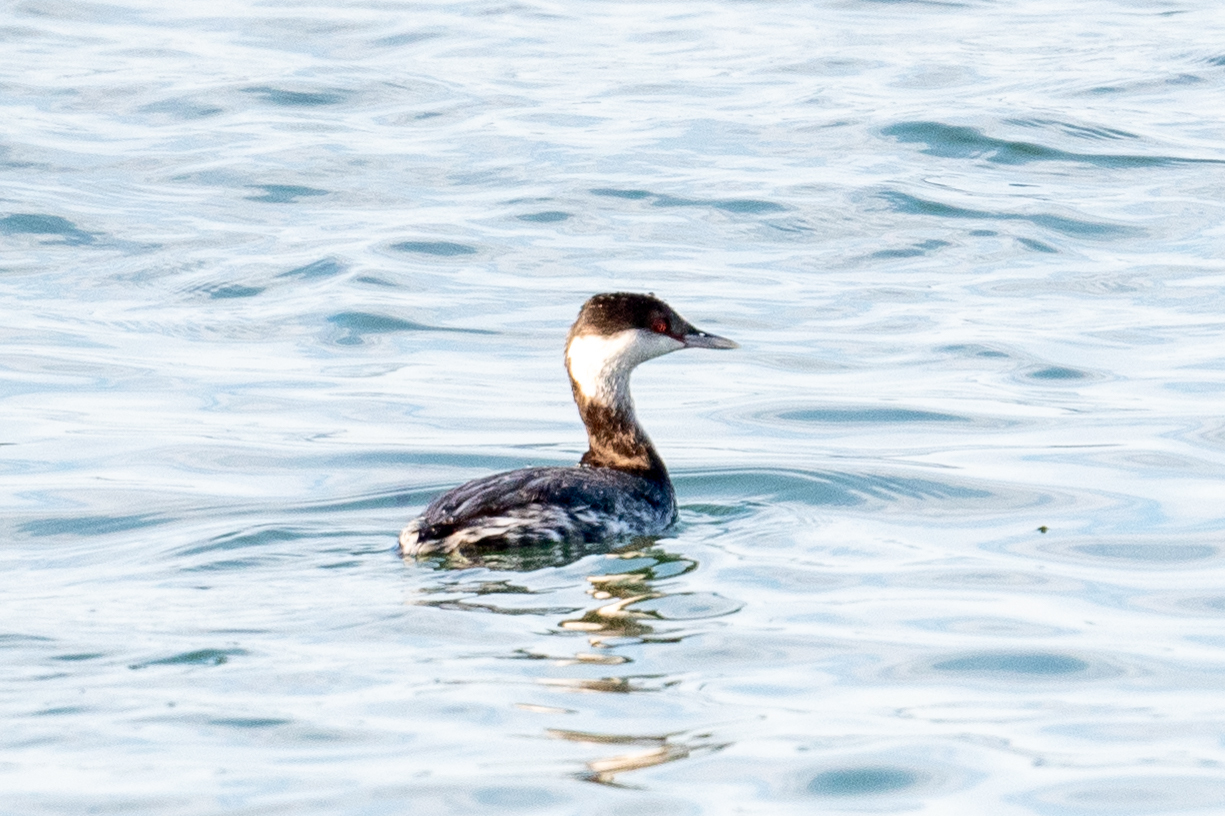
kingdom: Animalia
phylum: Chordata
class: Aves
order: Podicipediformes
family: Podicipedidae
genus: Podiceps
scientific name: Podiceps auritus
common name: Horned grebe
